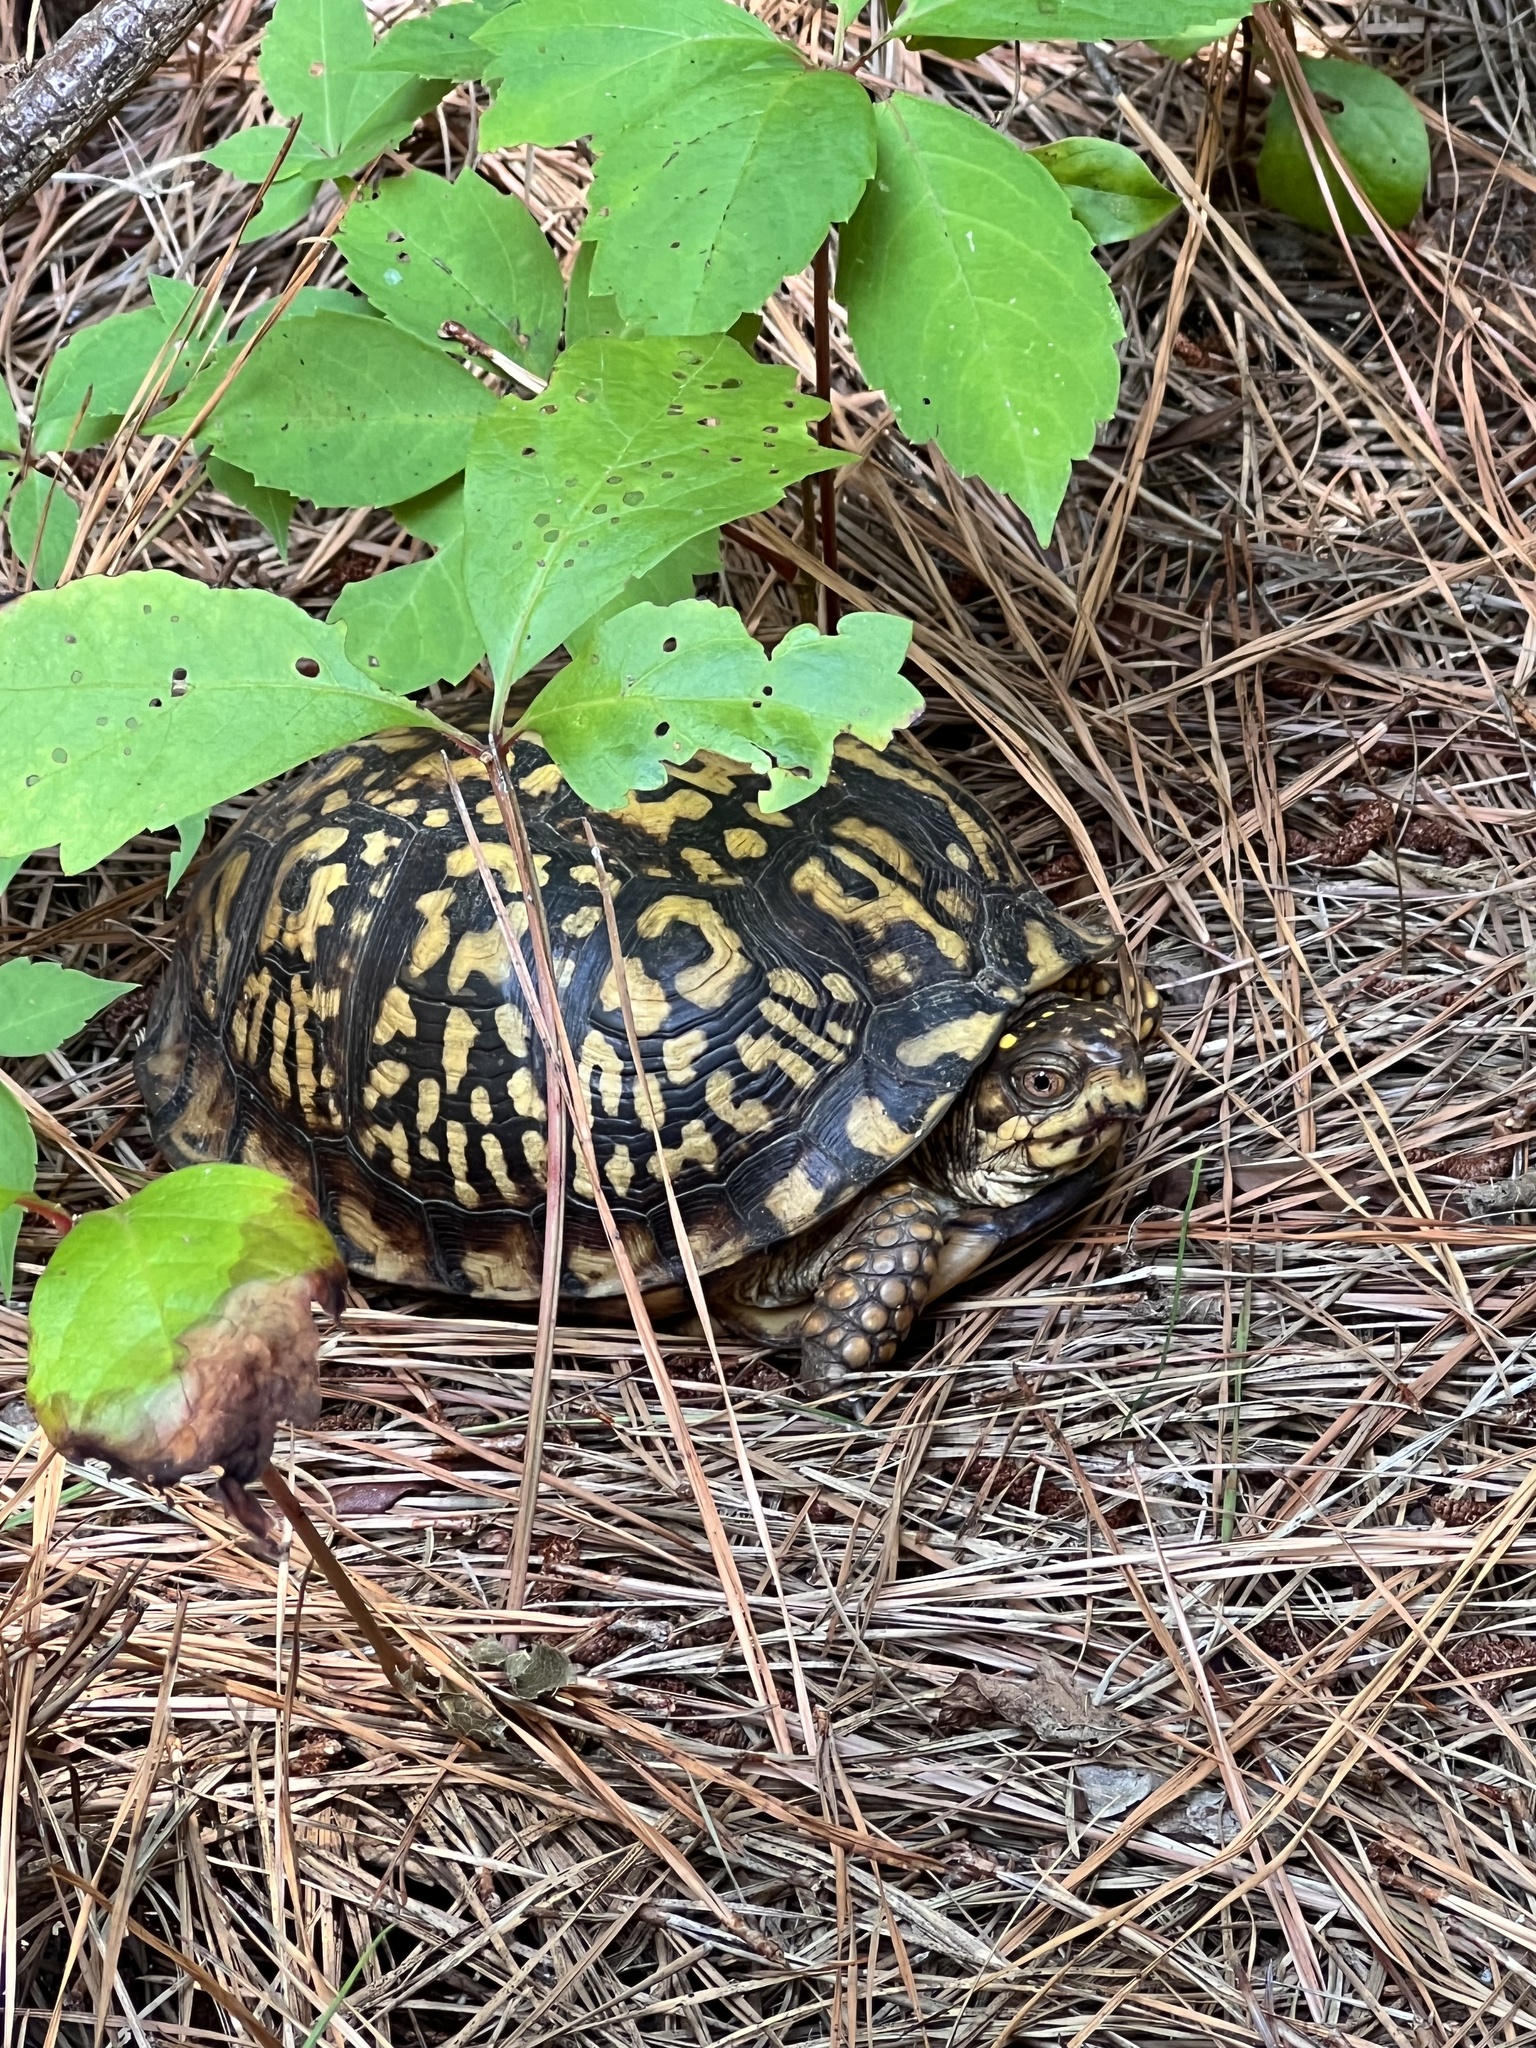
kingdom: Animalia
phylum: Chordata
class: Testudines
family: Emydidae
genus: Terrapene
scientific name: Terrapene carolina
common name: Common box turtle
